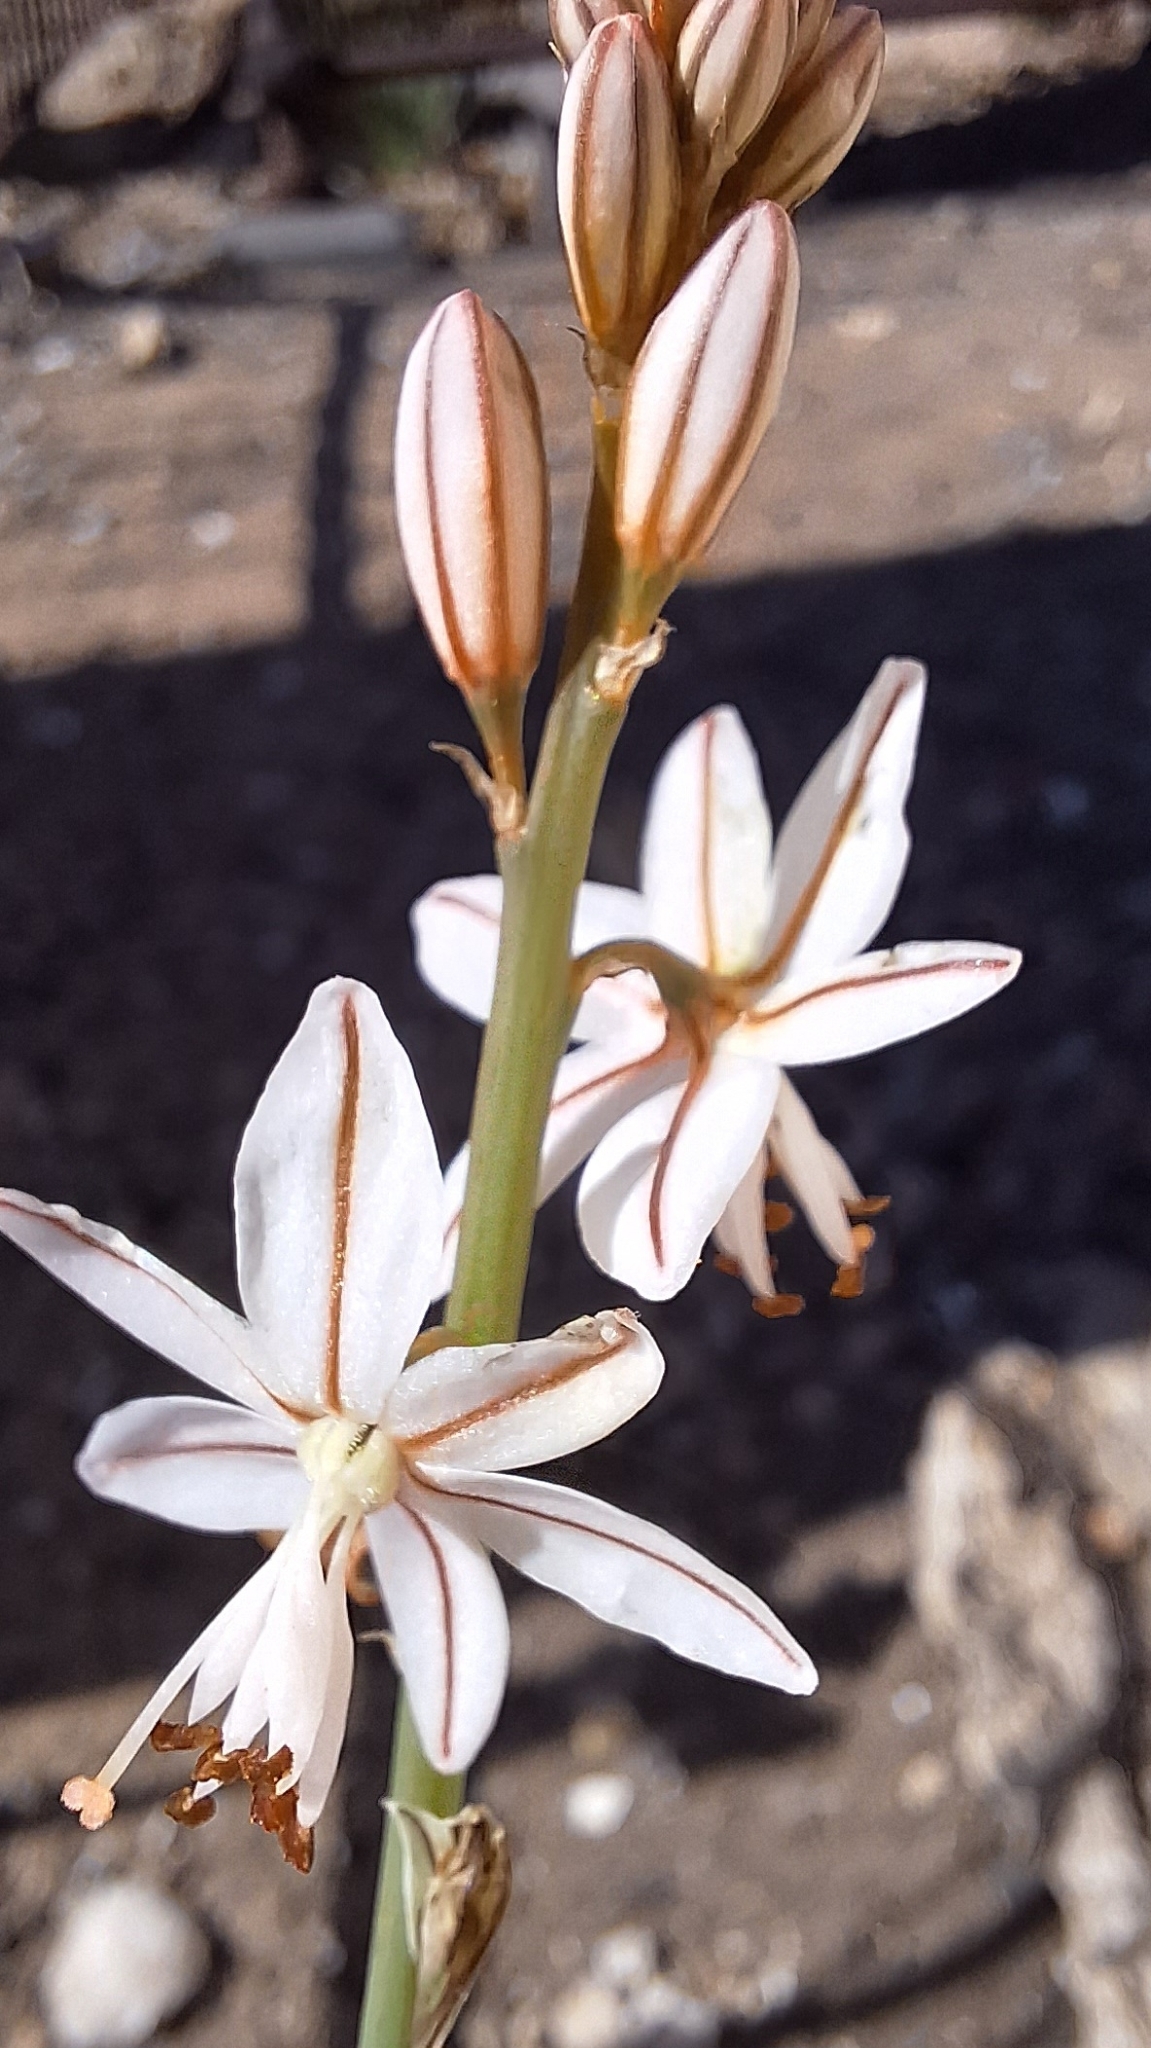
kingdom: Plantae
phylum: Tracheophyta
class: Liliopsida
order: Asparagales
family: Asphodelaceae
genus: Asphodelus
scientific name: Asphodelus fistulosus
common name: Onionweed
